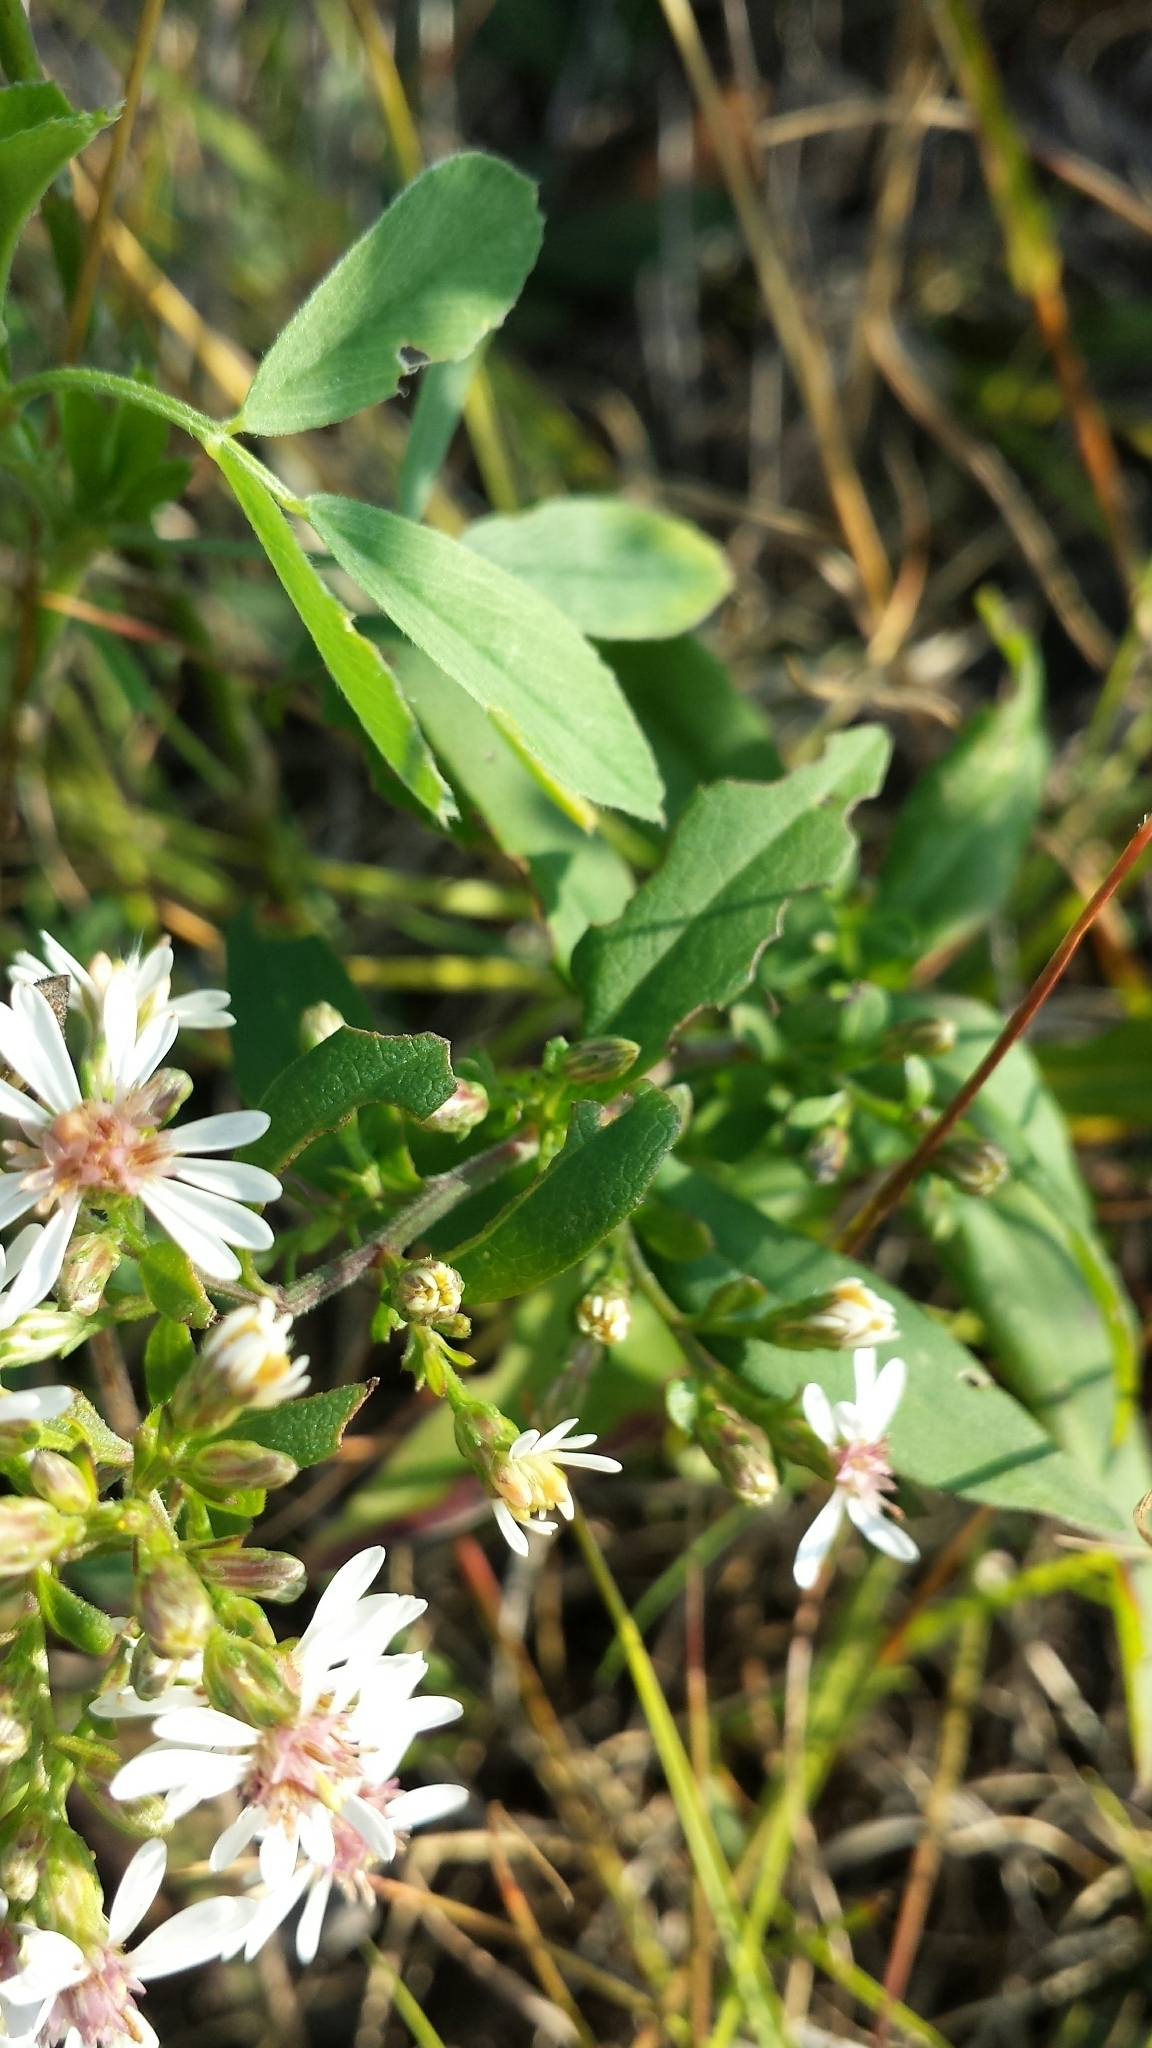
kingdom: Plantae
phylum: Tracheophyta
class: Magnoliopsida
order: Asterales
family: Asteraceae
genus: Symphyotrichum
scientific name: Symphyotrichum lateriflorum
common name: Calico aster
